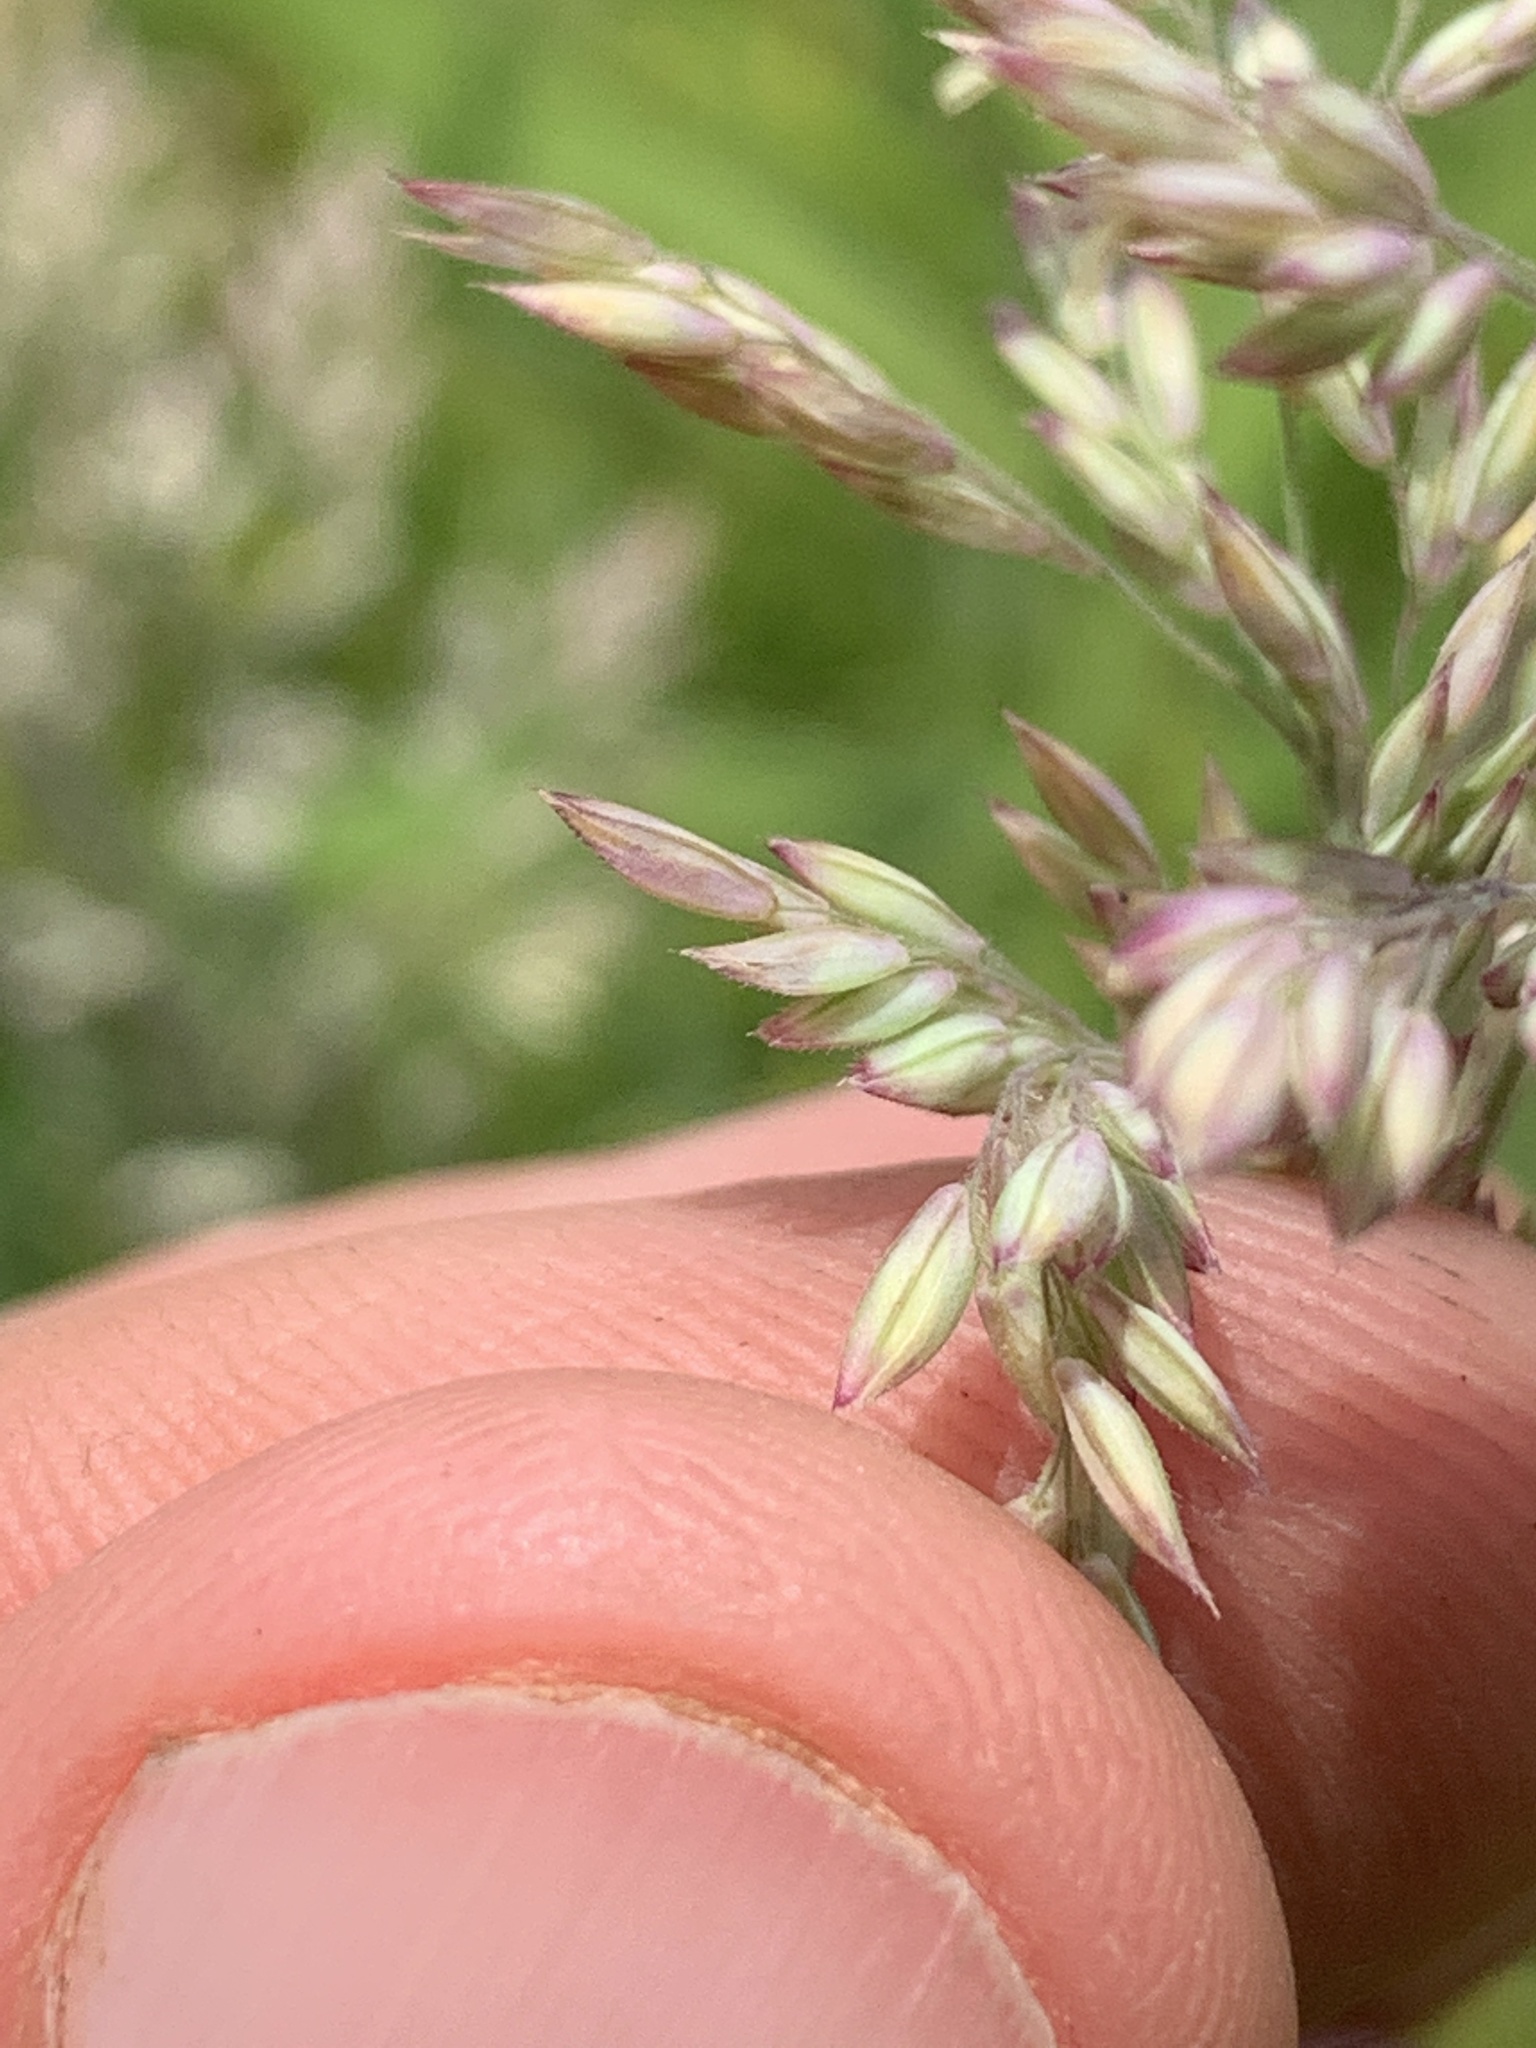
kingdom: Plantae
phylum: Tracheophyta
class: Liliopsida
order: Poales
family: Poaceae
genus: Holcus
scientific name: Holcus lanatus
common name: Yorkshire-fog
